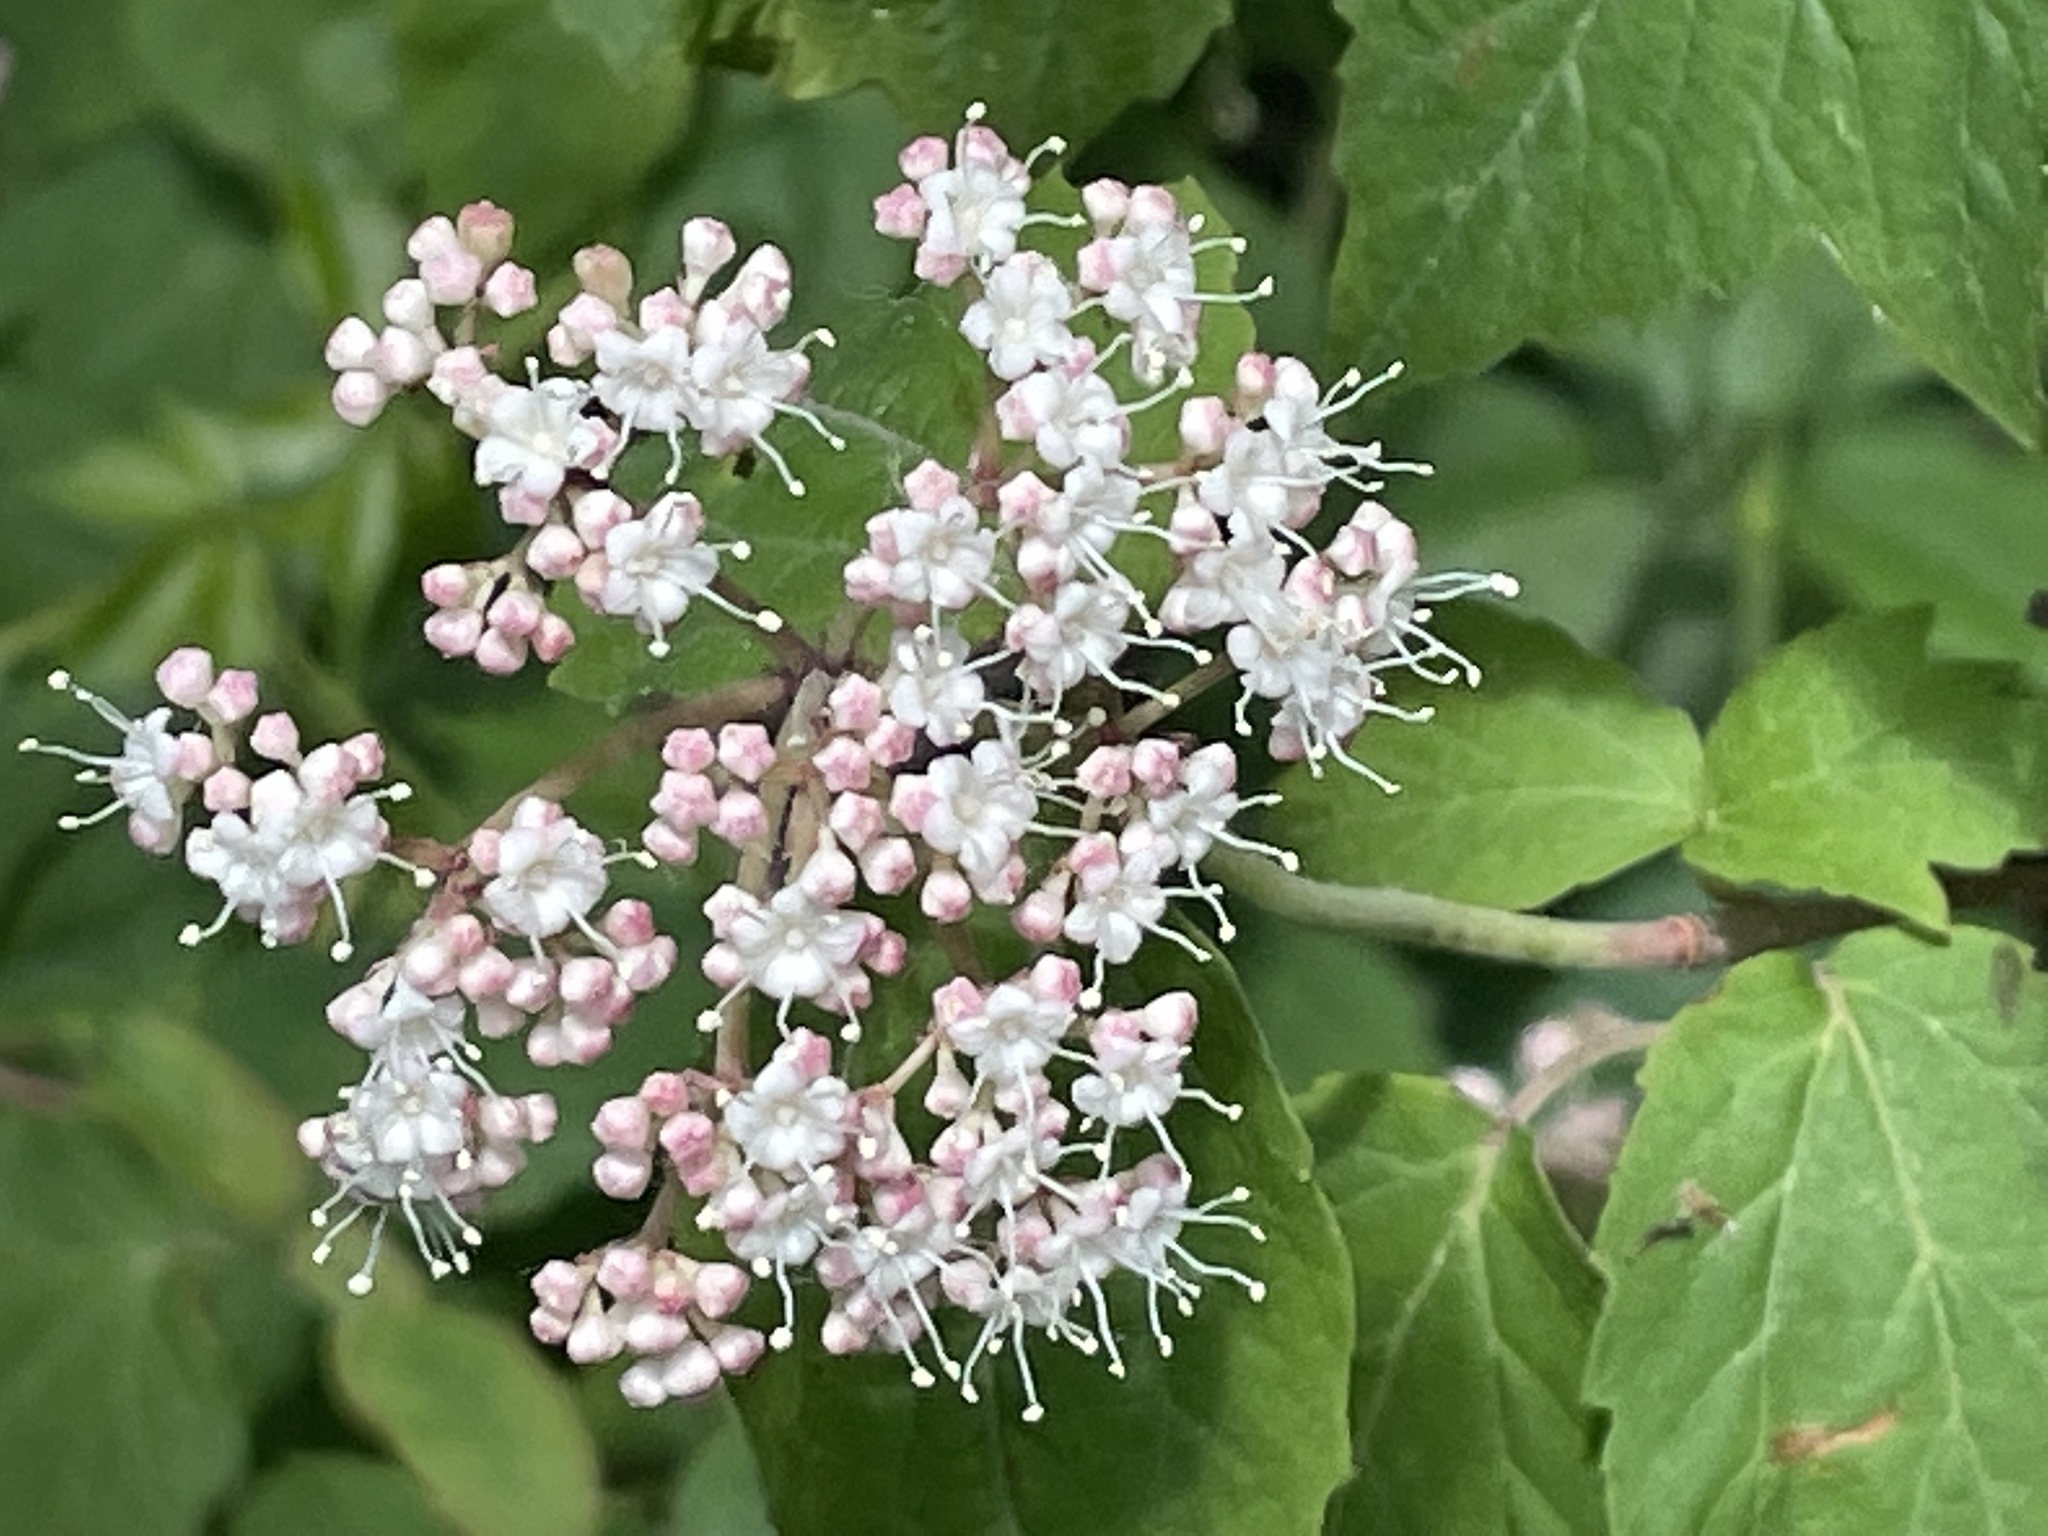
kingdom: Plantae
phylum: Tracheophyta
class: Magnoliopsida
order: Dipsacales
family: Viburnaceae
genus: Viburnum
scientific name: Viburnum acerifolium
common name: Dockmackie
